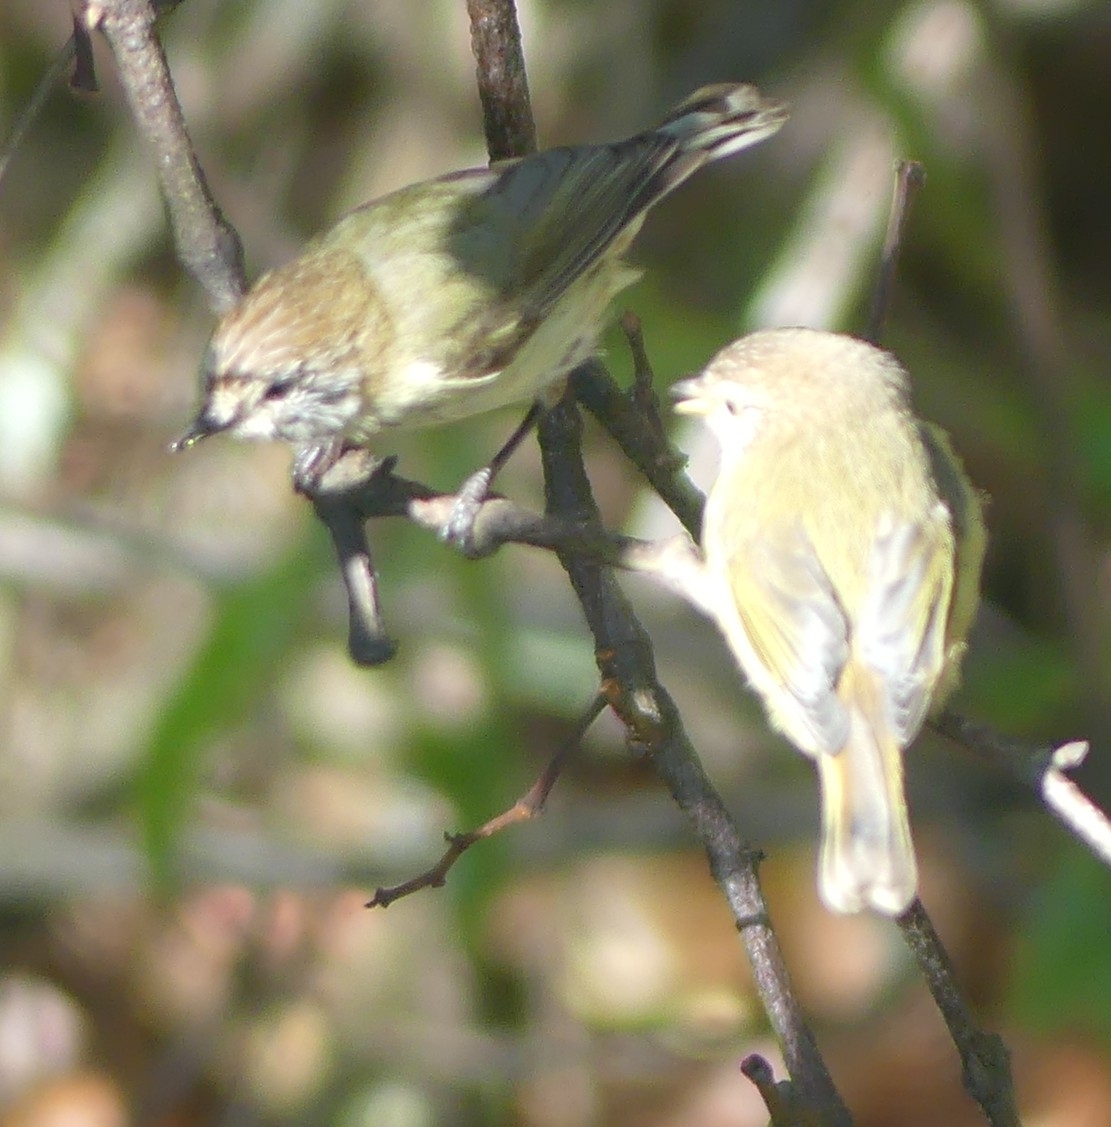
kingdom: Animalia
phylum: Chordata
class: Aves
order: Passeriformes
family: Acanthizidae
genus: Acanthiza
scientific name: Acanthiza lineata
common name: Striated thornbill
